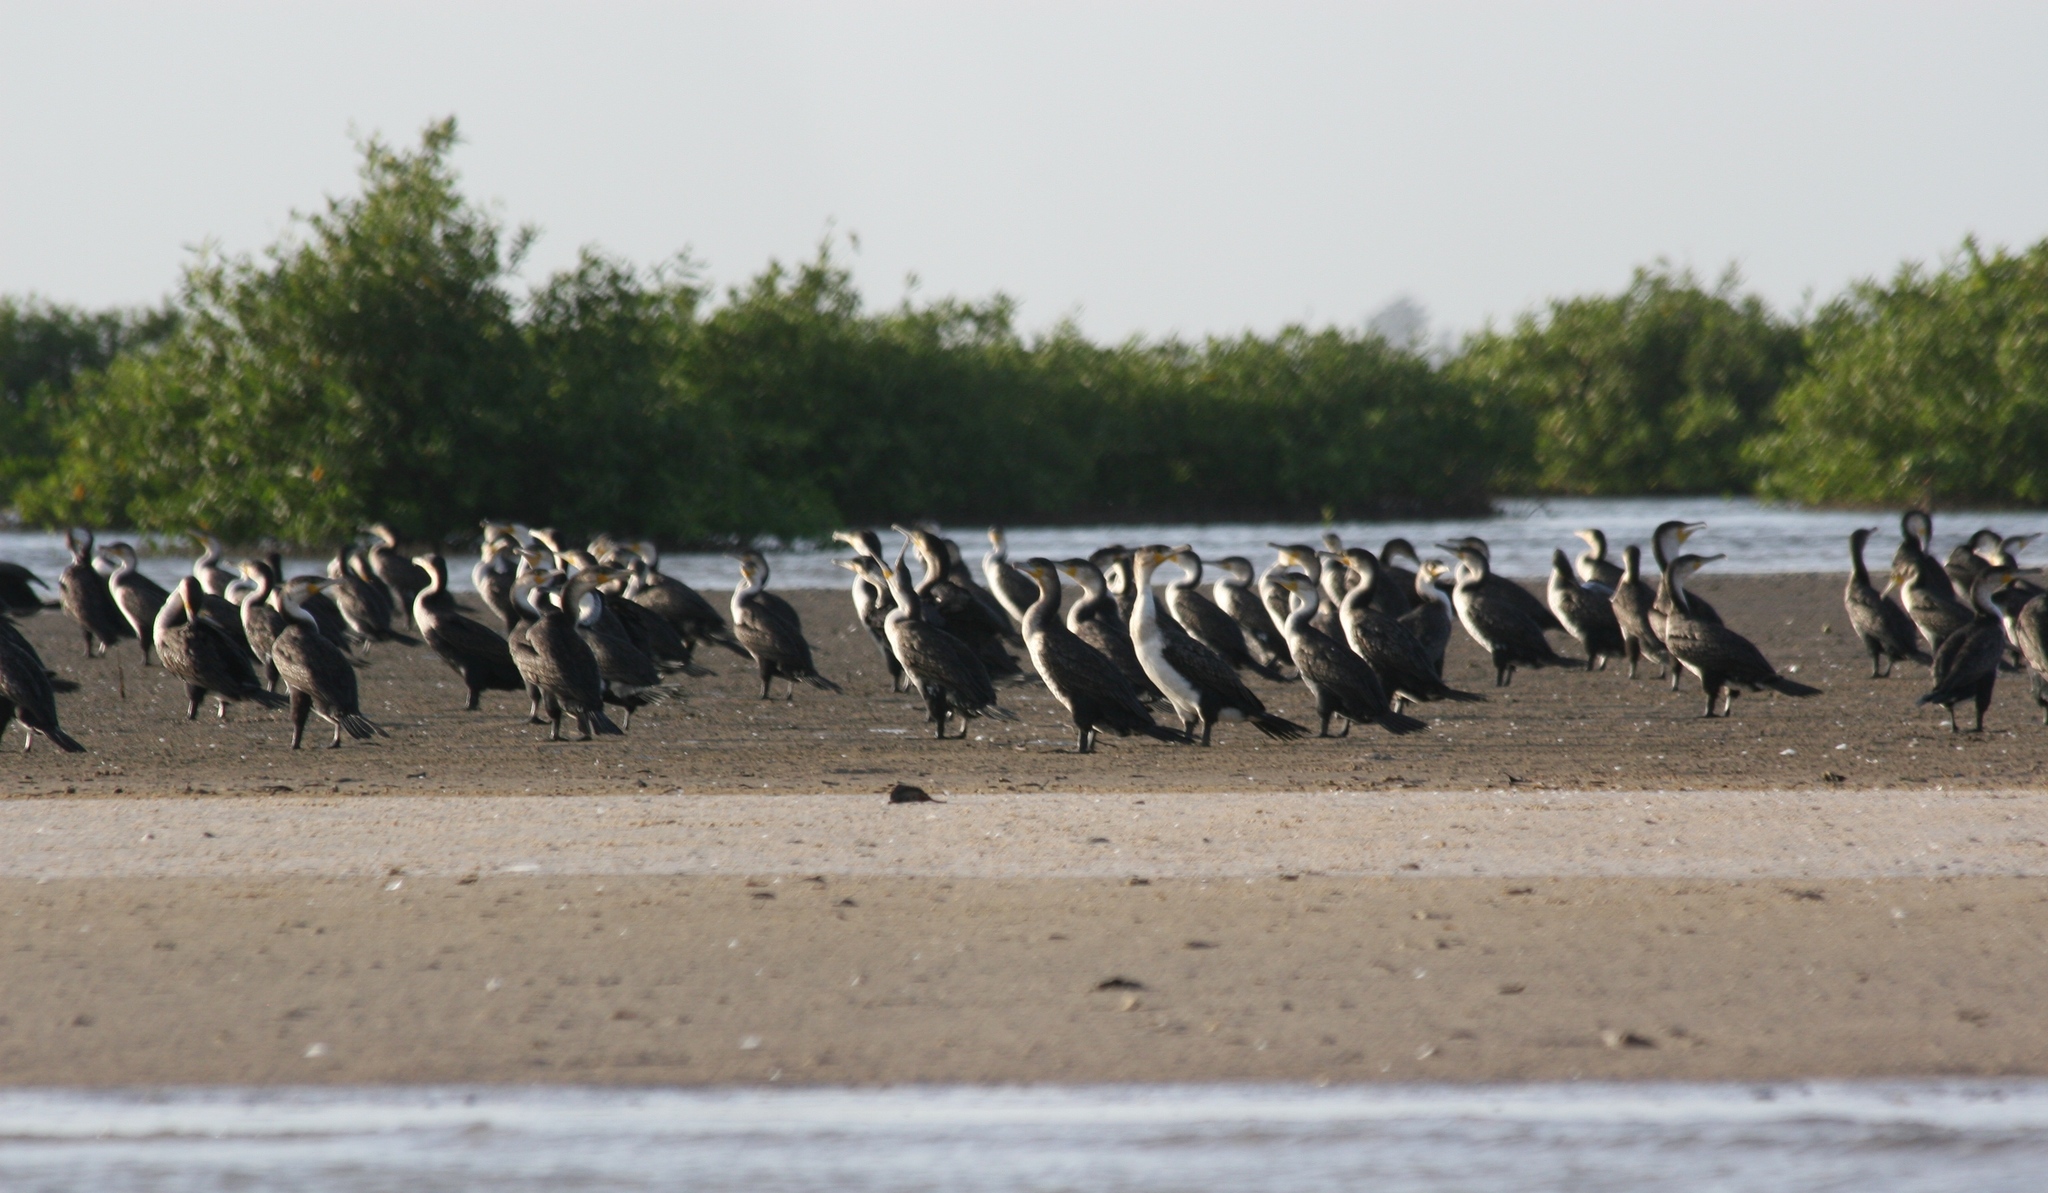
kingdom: Animalia
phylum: Chordata
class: Aves
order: Suliformes
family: Phalacrocoracidae
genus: Phalacrocorax
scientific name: Phalacrocorax carbo
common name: Great cormorant
